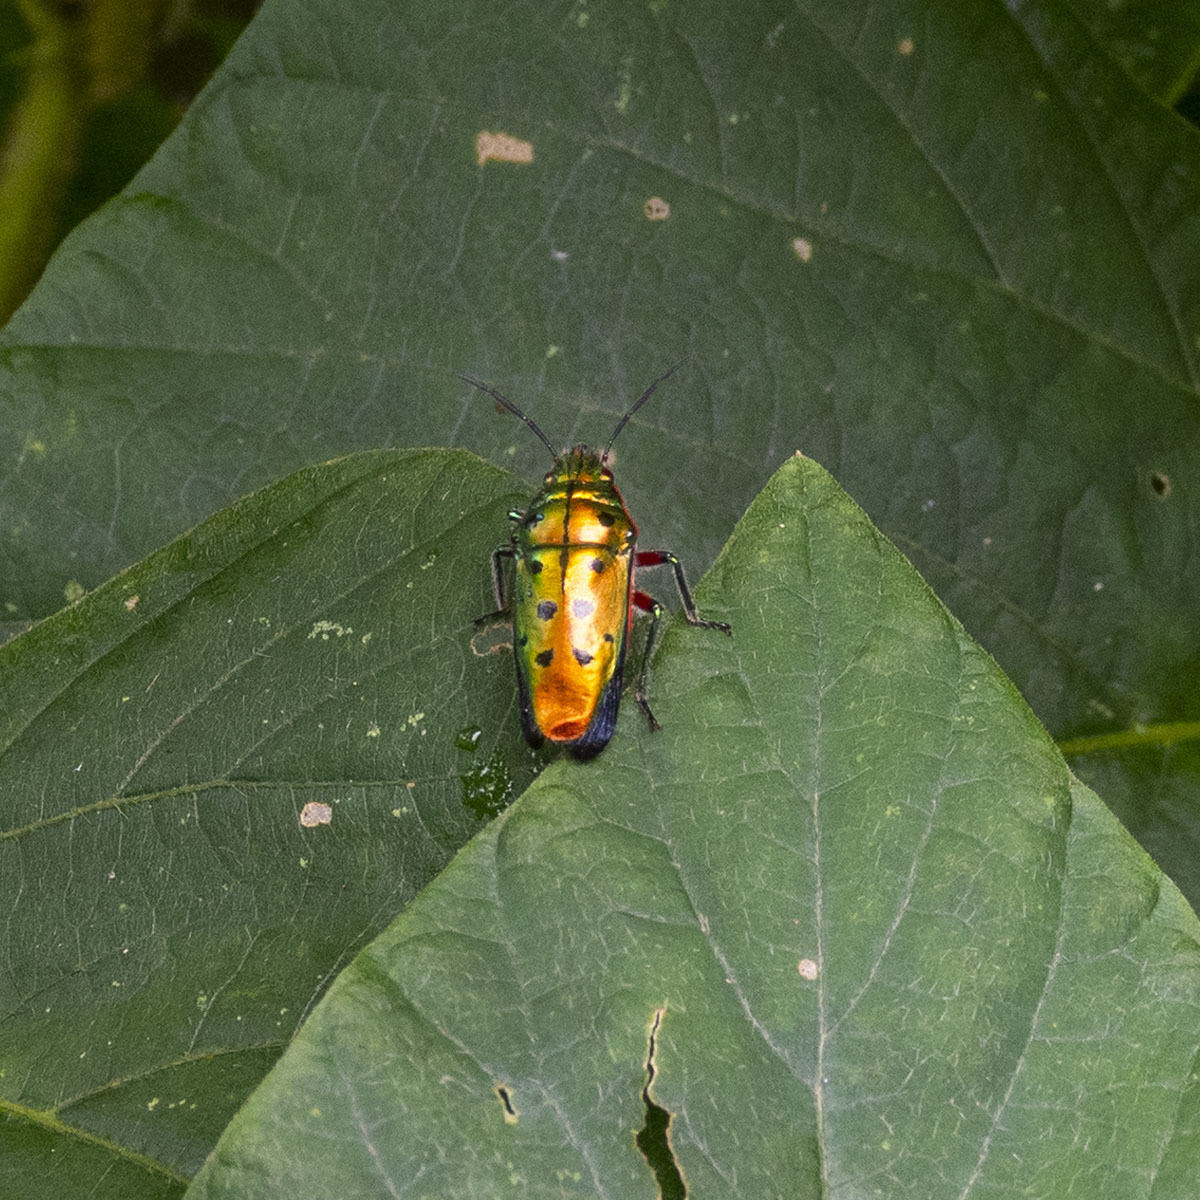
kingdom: Animalia
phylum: Arthropoda
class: Insecta
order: Hemiptera
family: Scutelleridae
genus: Scutellera
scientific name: Scutellera perplexa
